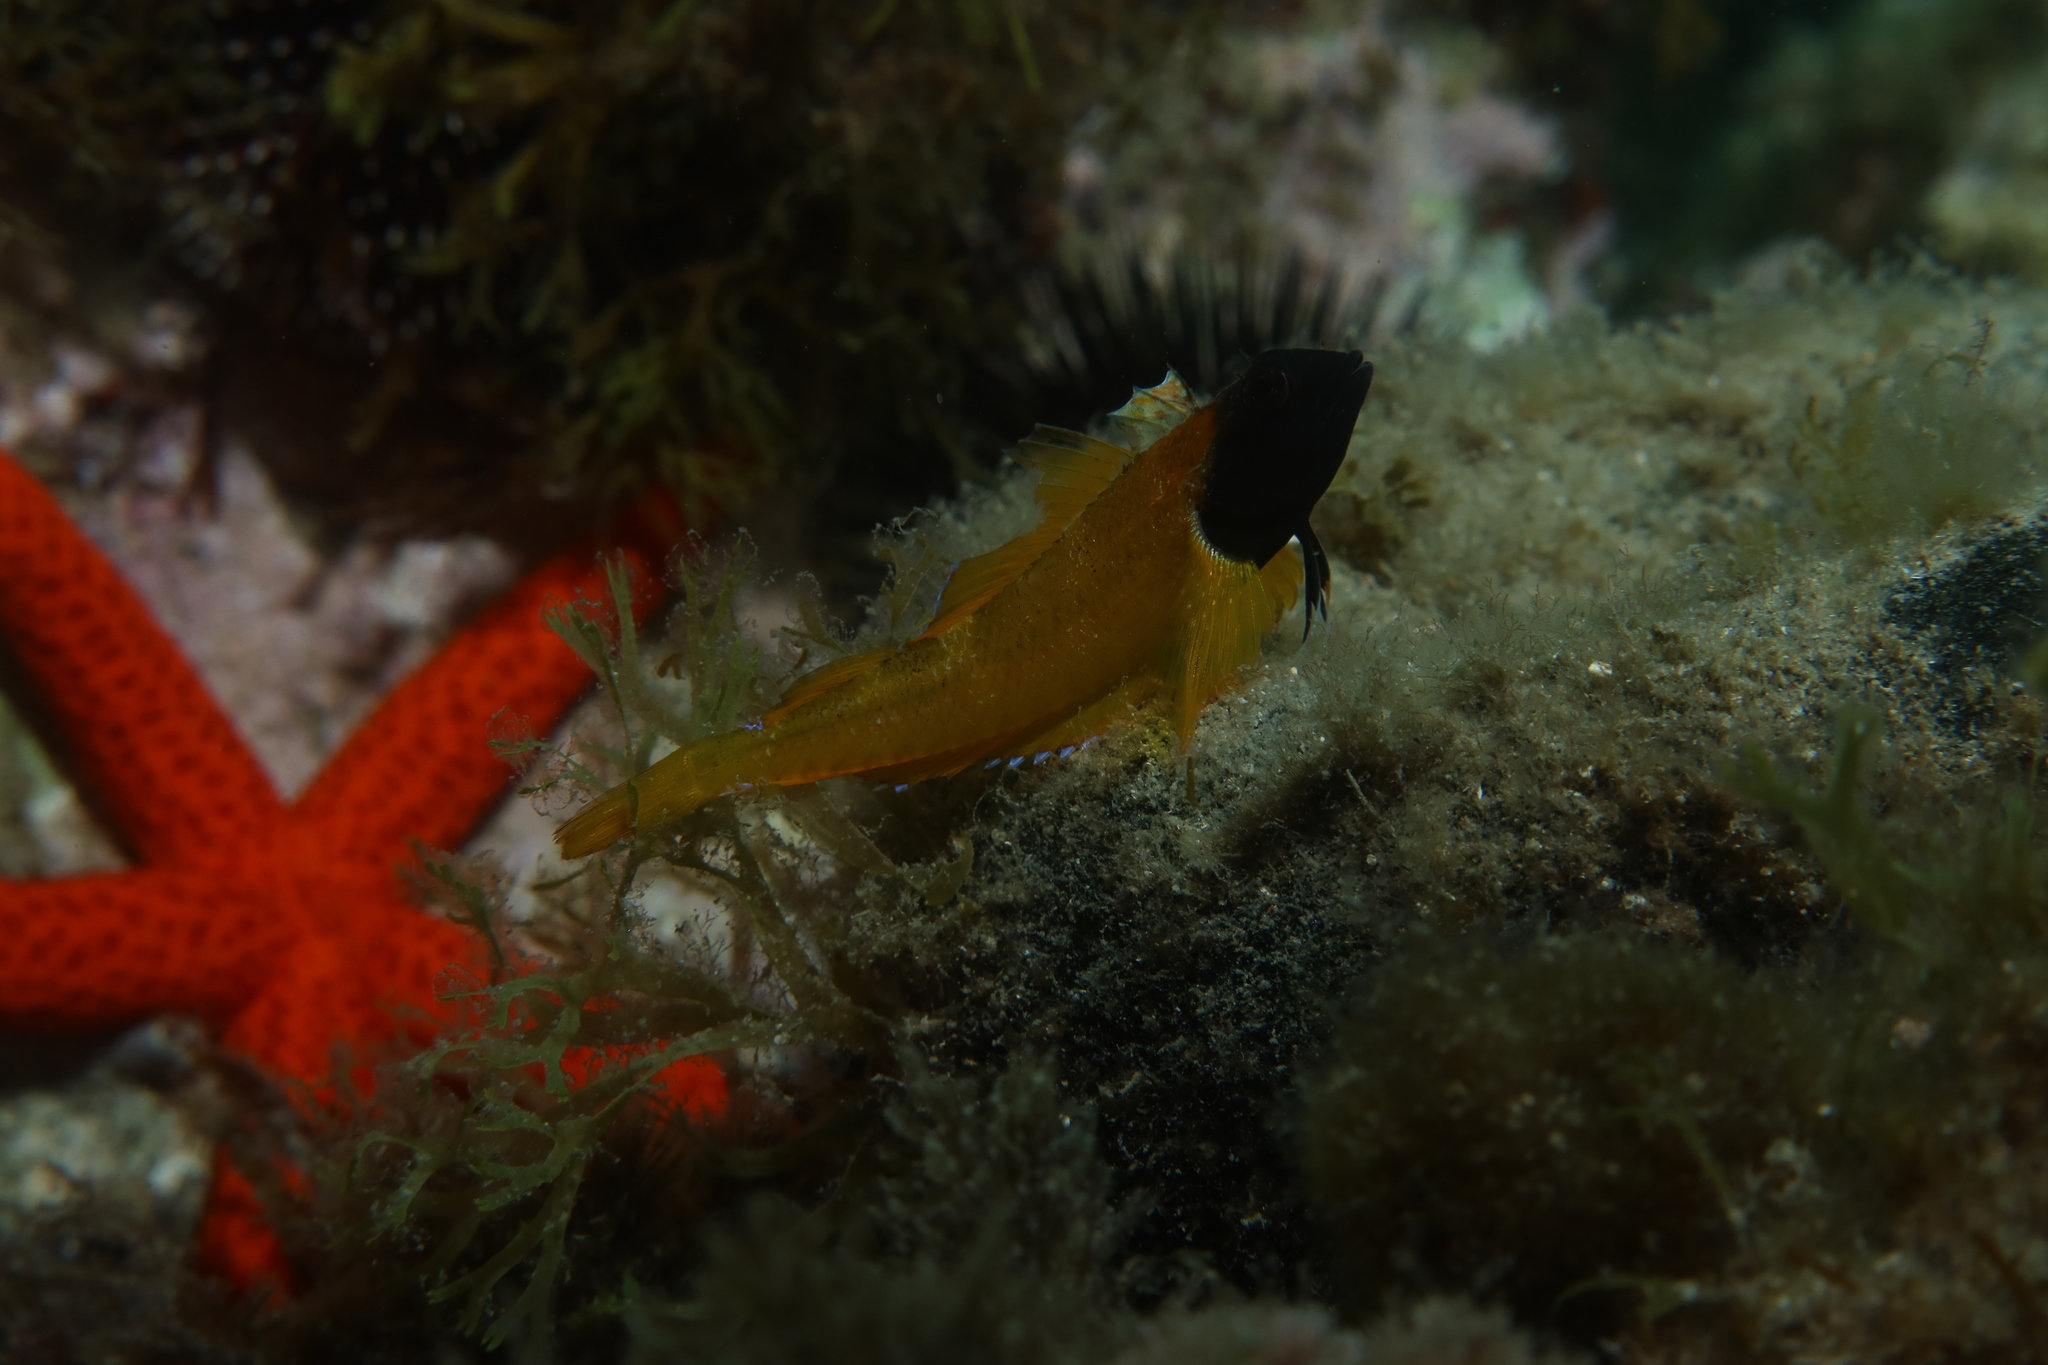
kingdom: Animalia
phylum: Chordata
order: Perciformes
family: Tripterygiidae
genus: Tripterygion
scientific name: Tripterygion delaisi
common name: Black-face blenny
